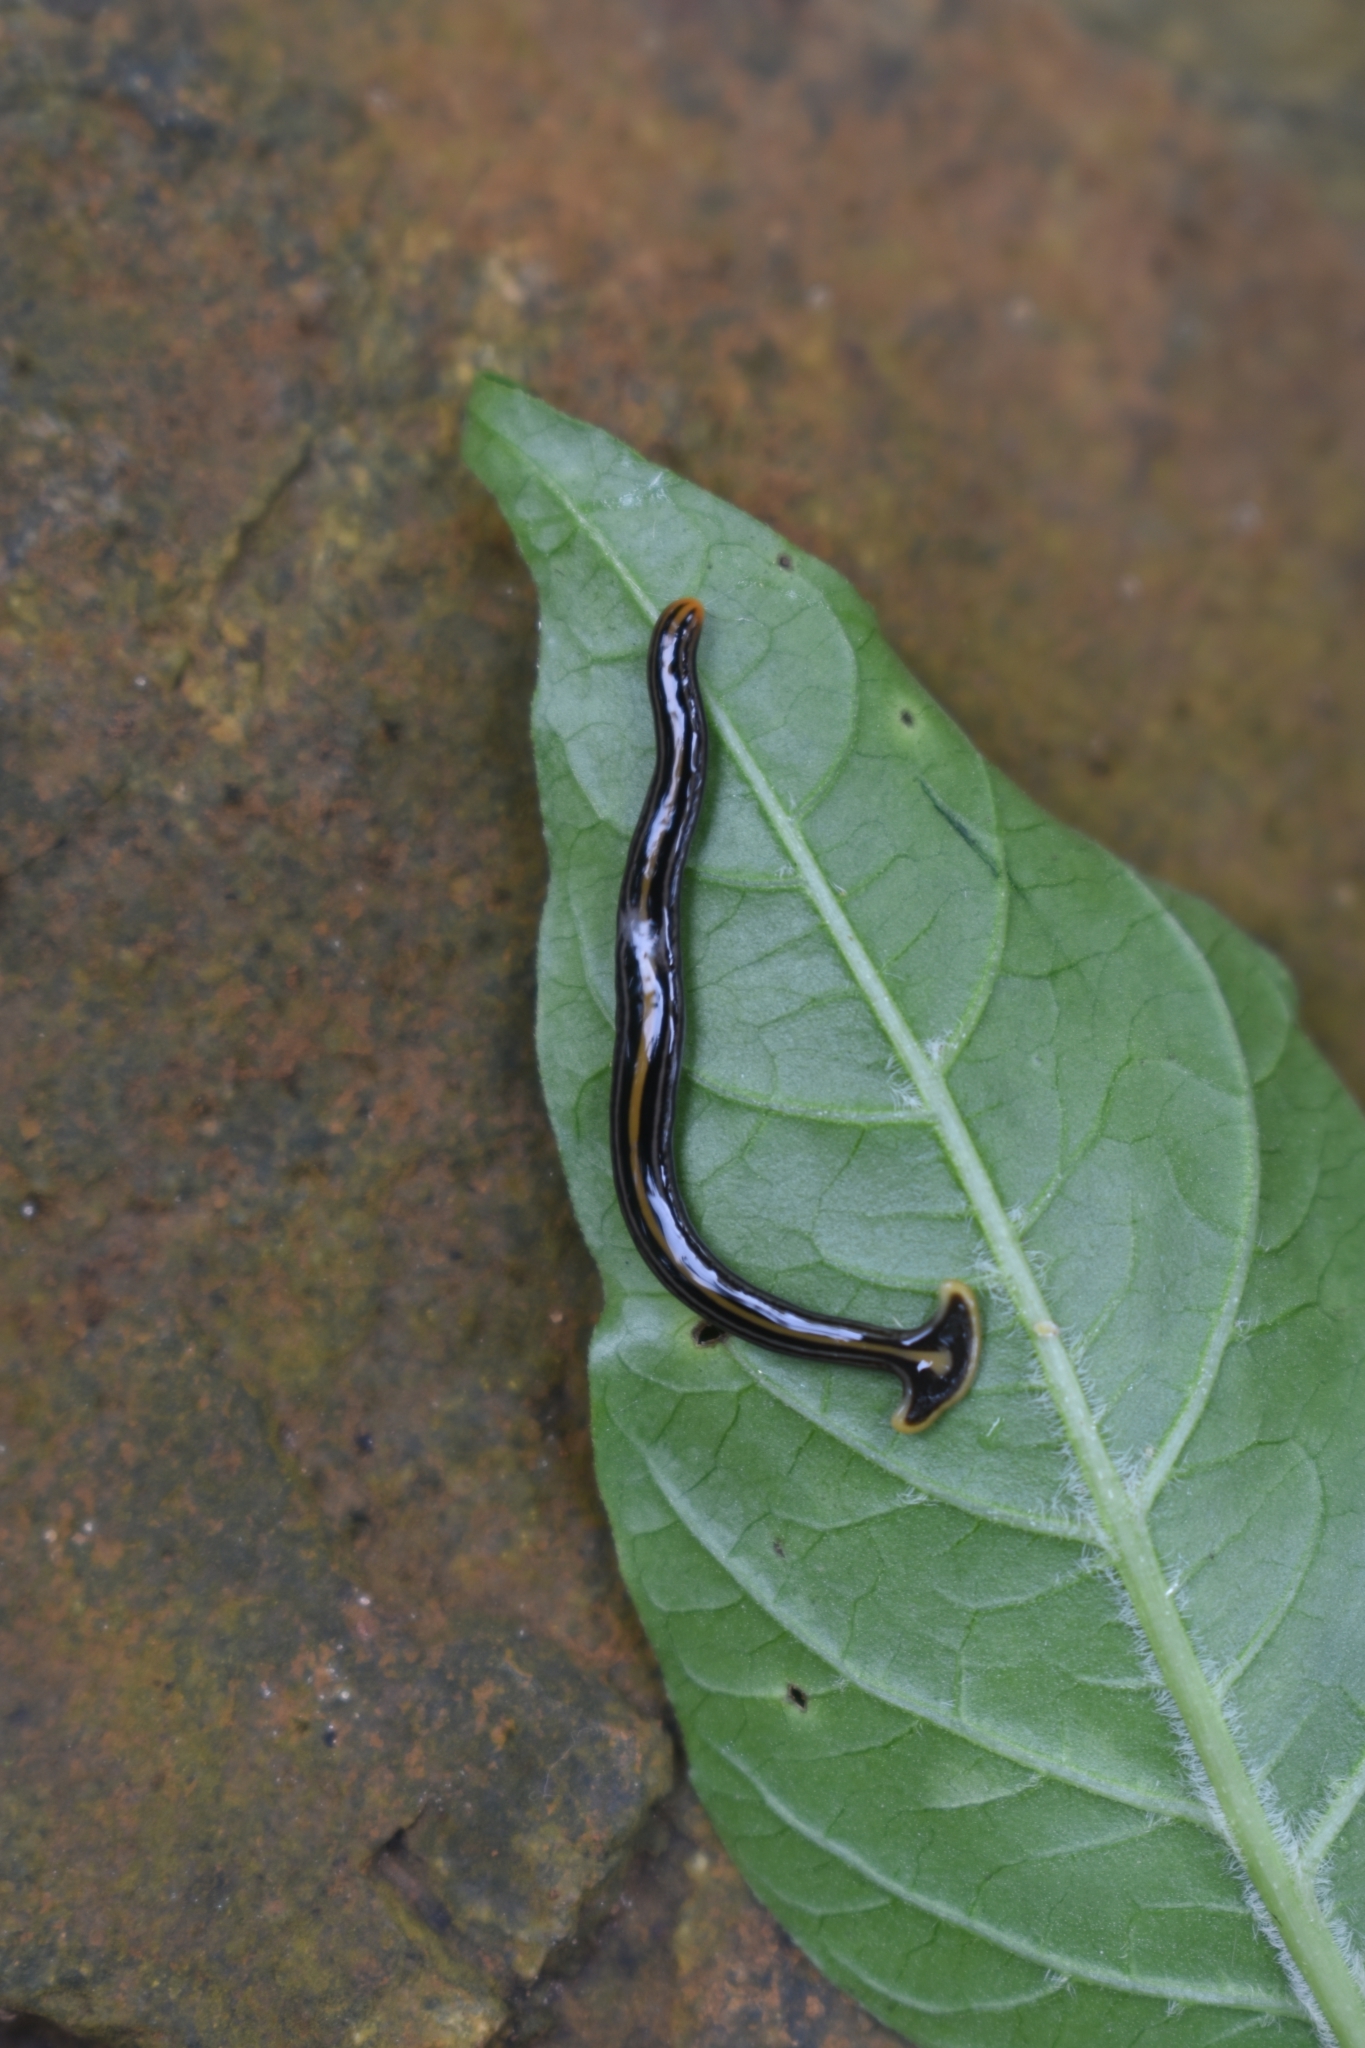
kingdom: Animalia
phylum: Platyhelminthes
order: Tricladida
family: Geoplanidae
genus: Humbertium
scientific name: Humbertium proserpina
